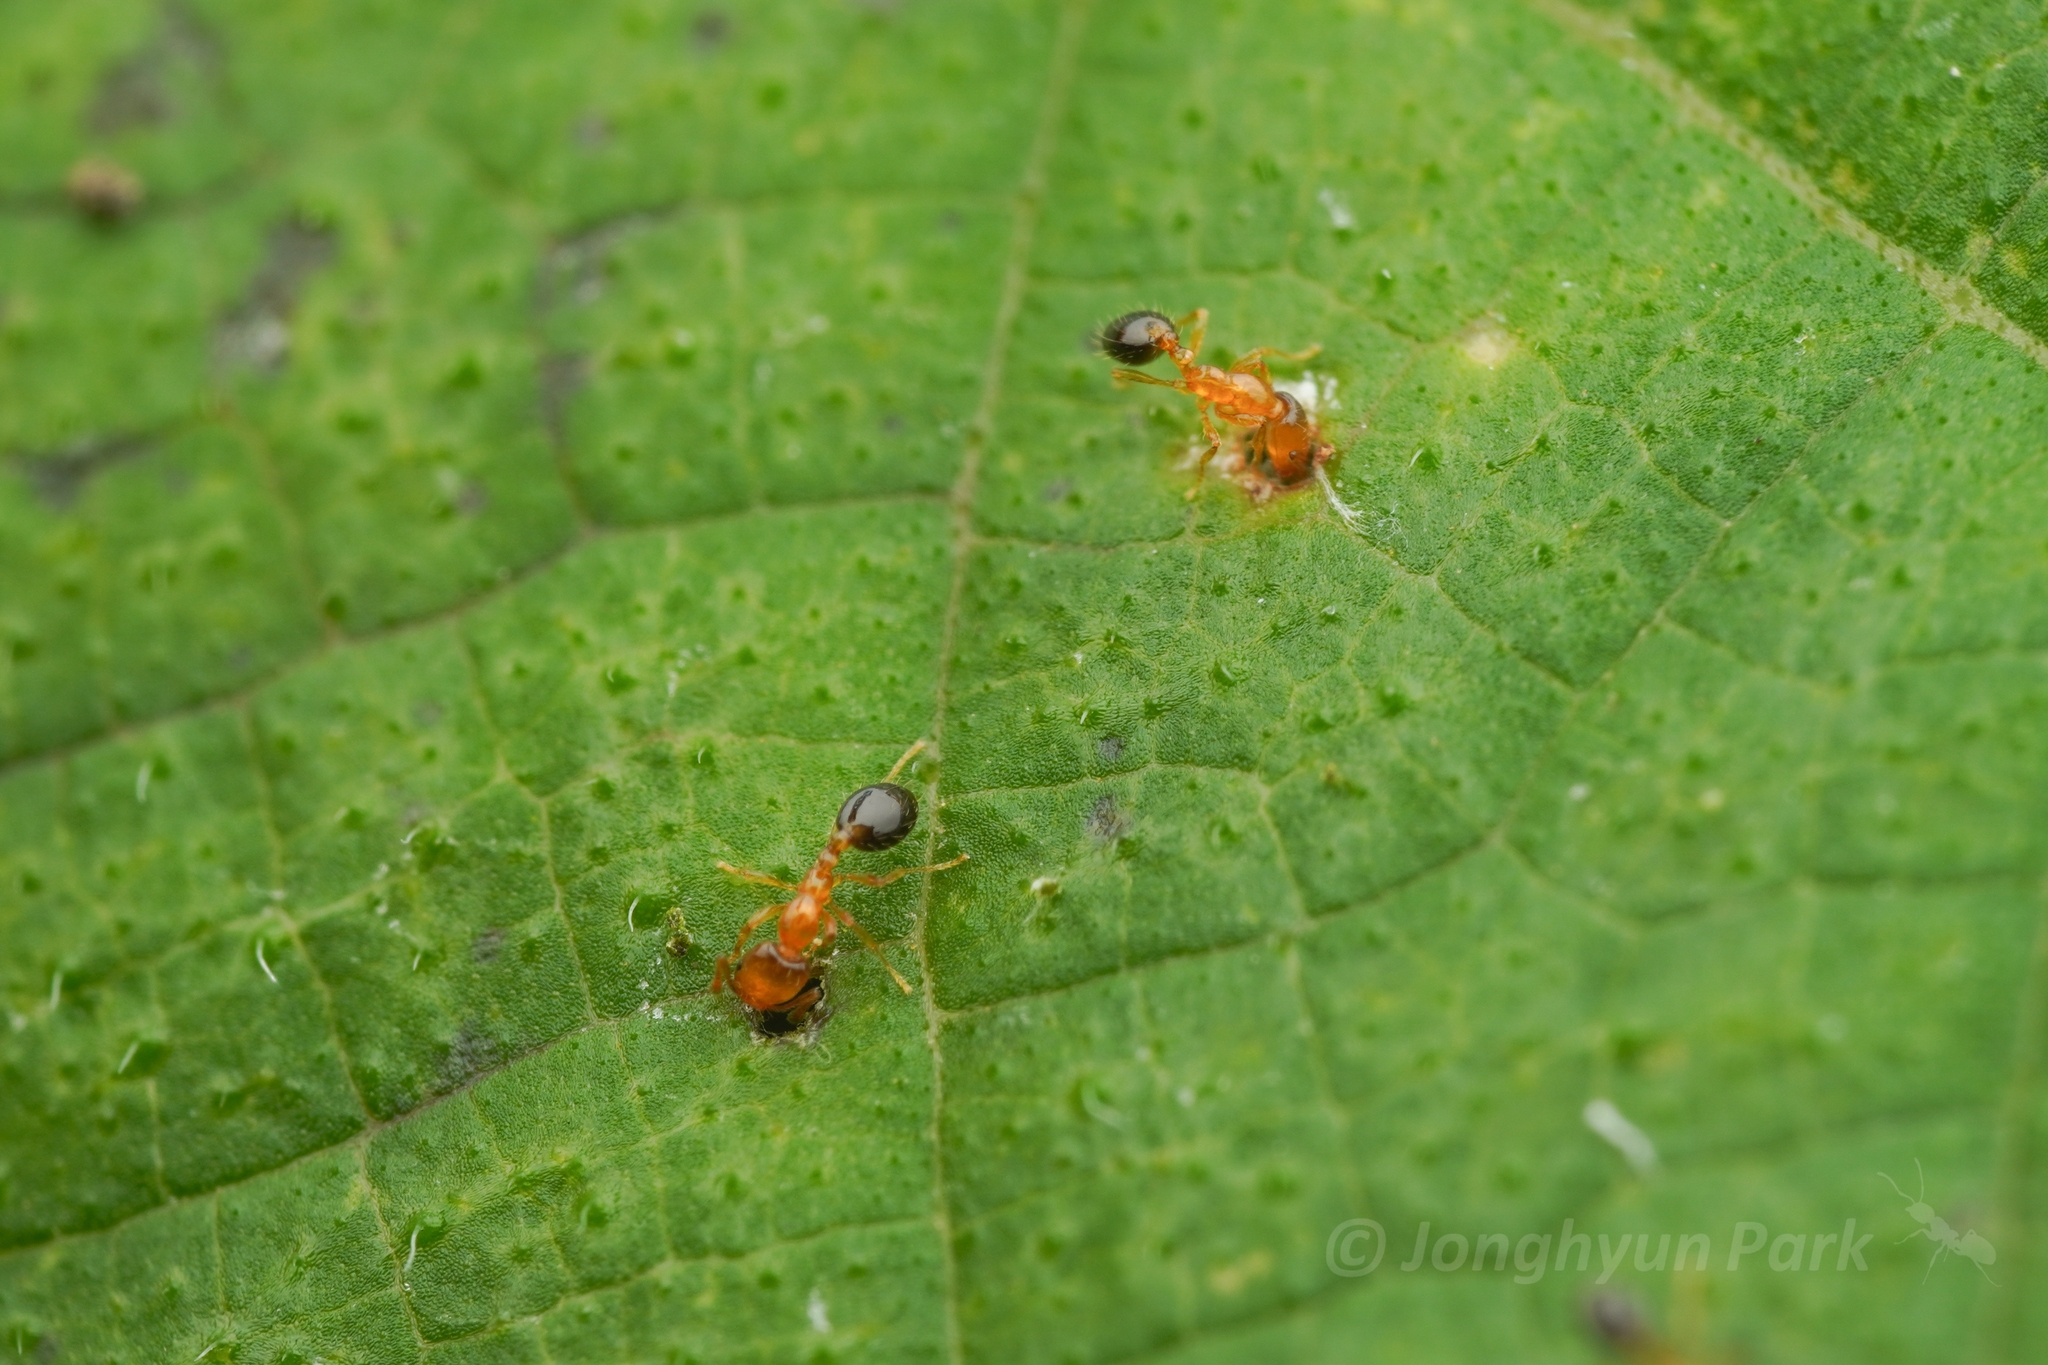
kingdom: Animalia
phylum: Arthropoda
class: Insecta
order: Hymenoptera
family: Formicidae
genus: Monomorium
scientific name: Monomorium intrudens
